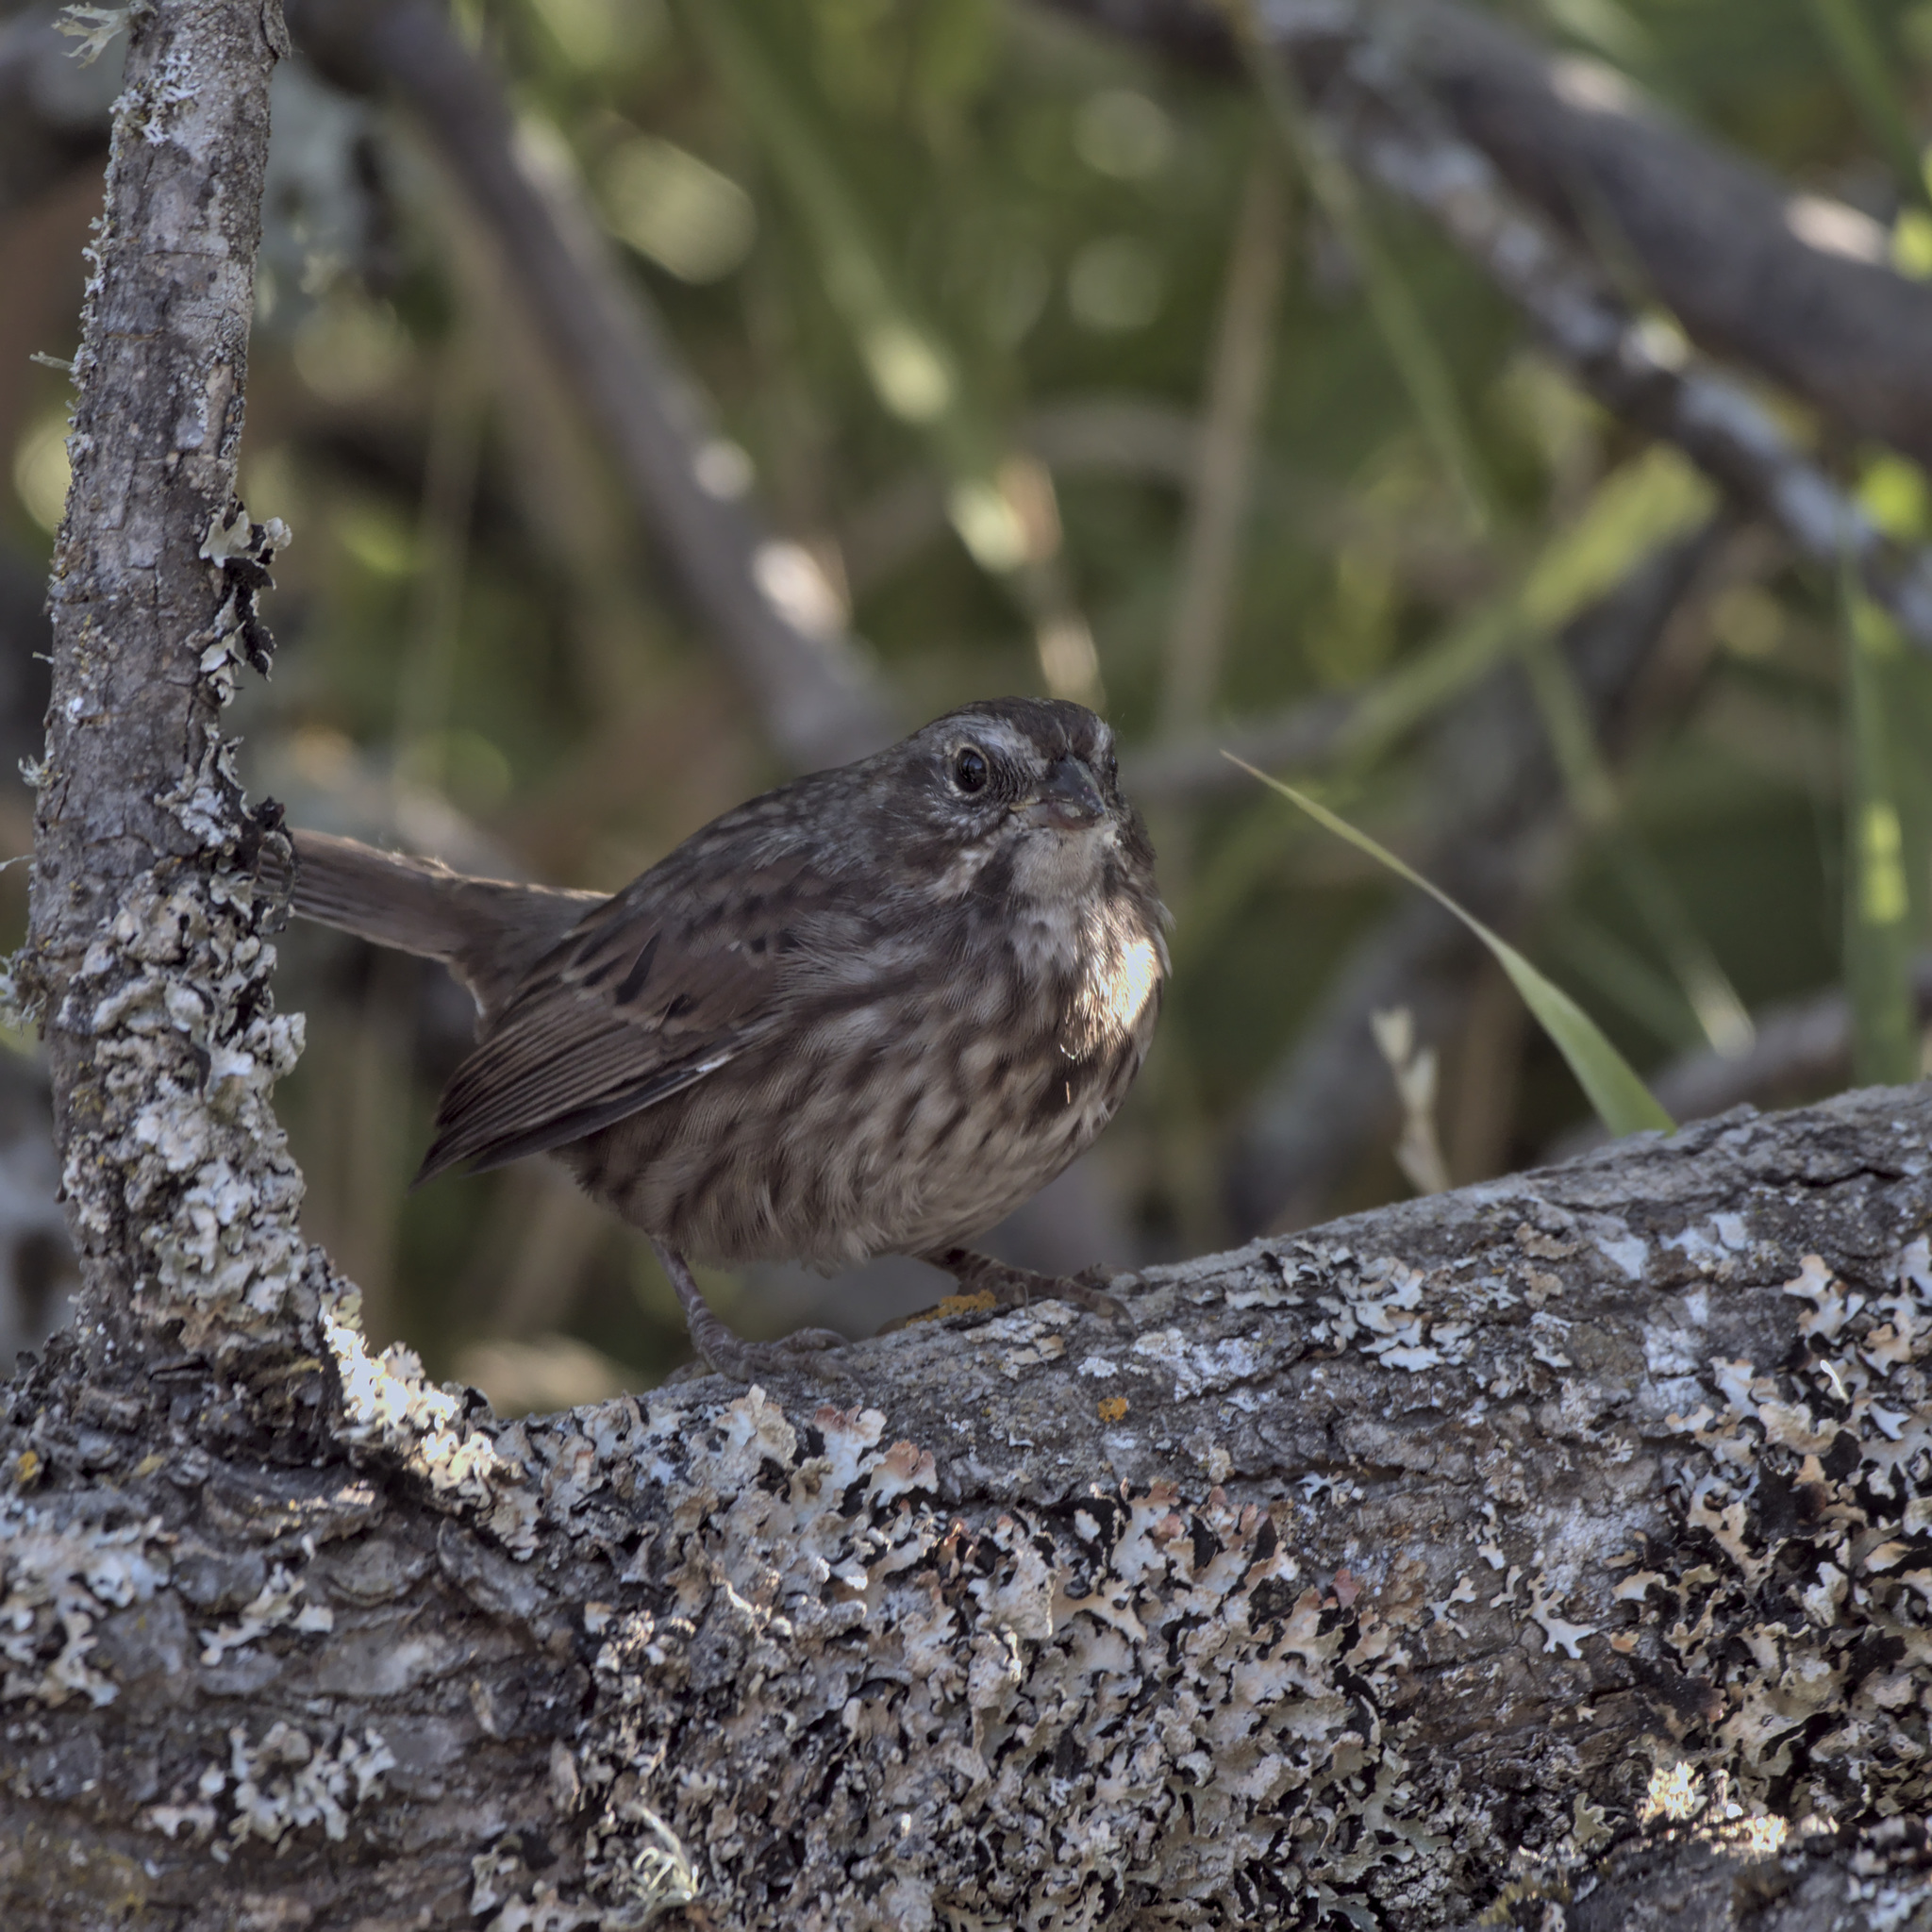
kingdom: Animalia
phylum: Chordata
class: Aves
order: Passeriformes
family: Passerellidae
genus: Melospiza
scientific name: Melospiza melodia
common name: Song sparrow
